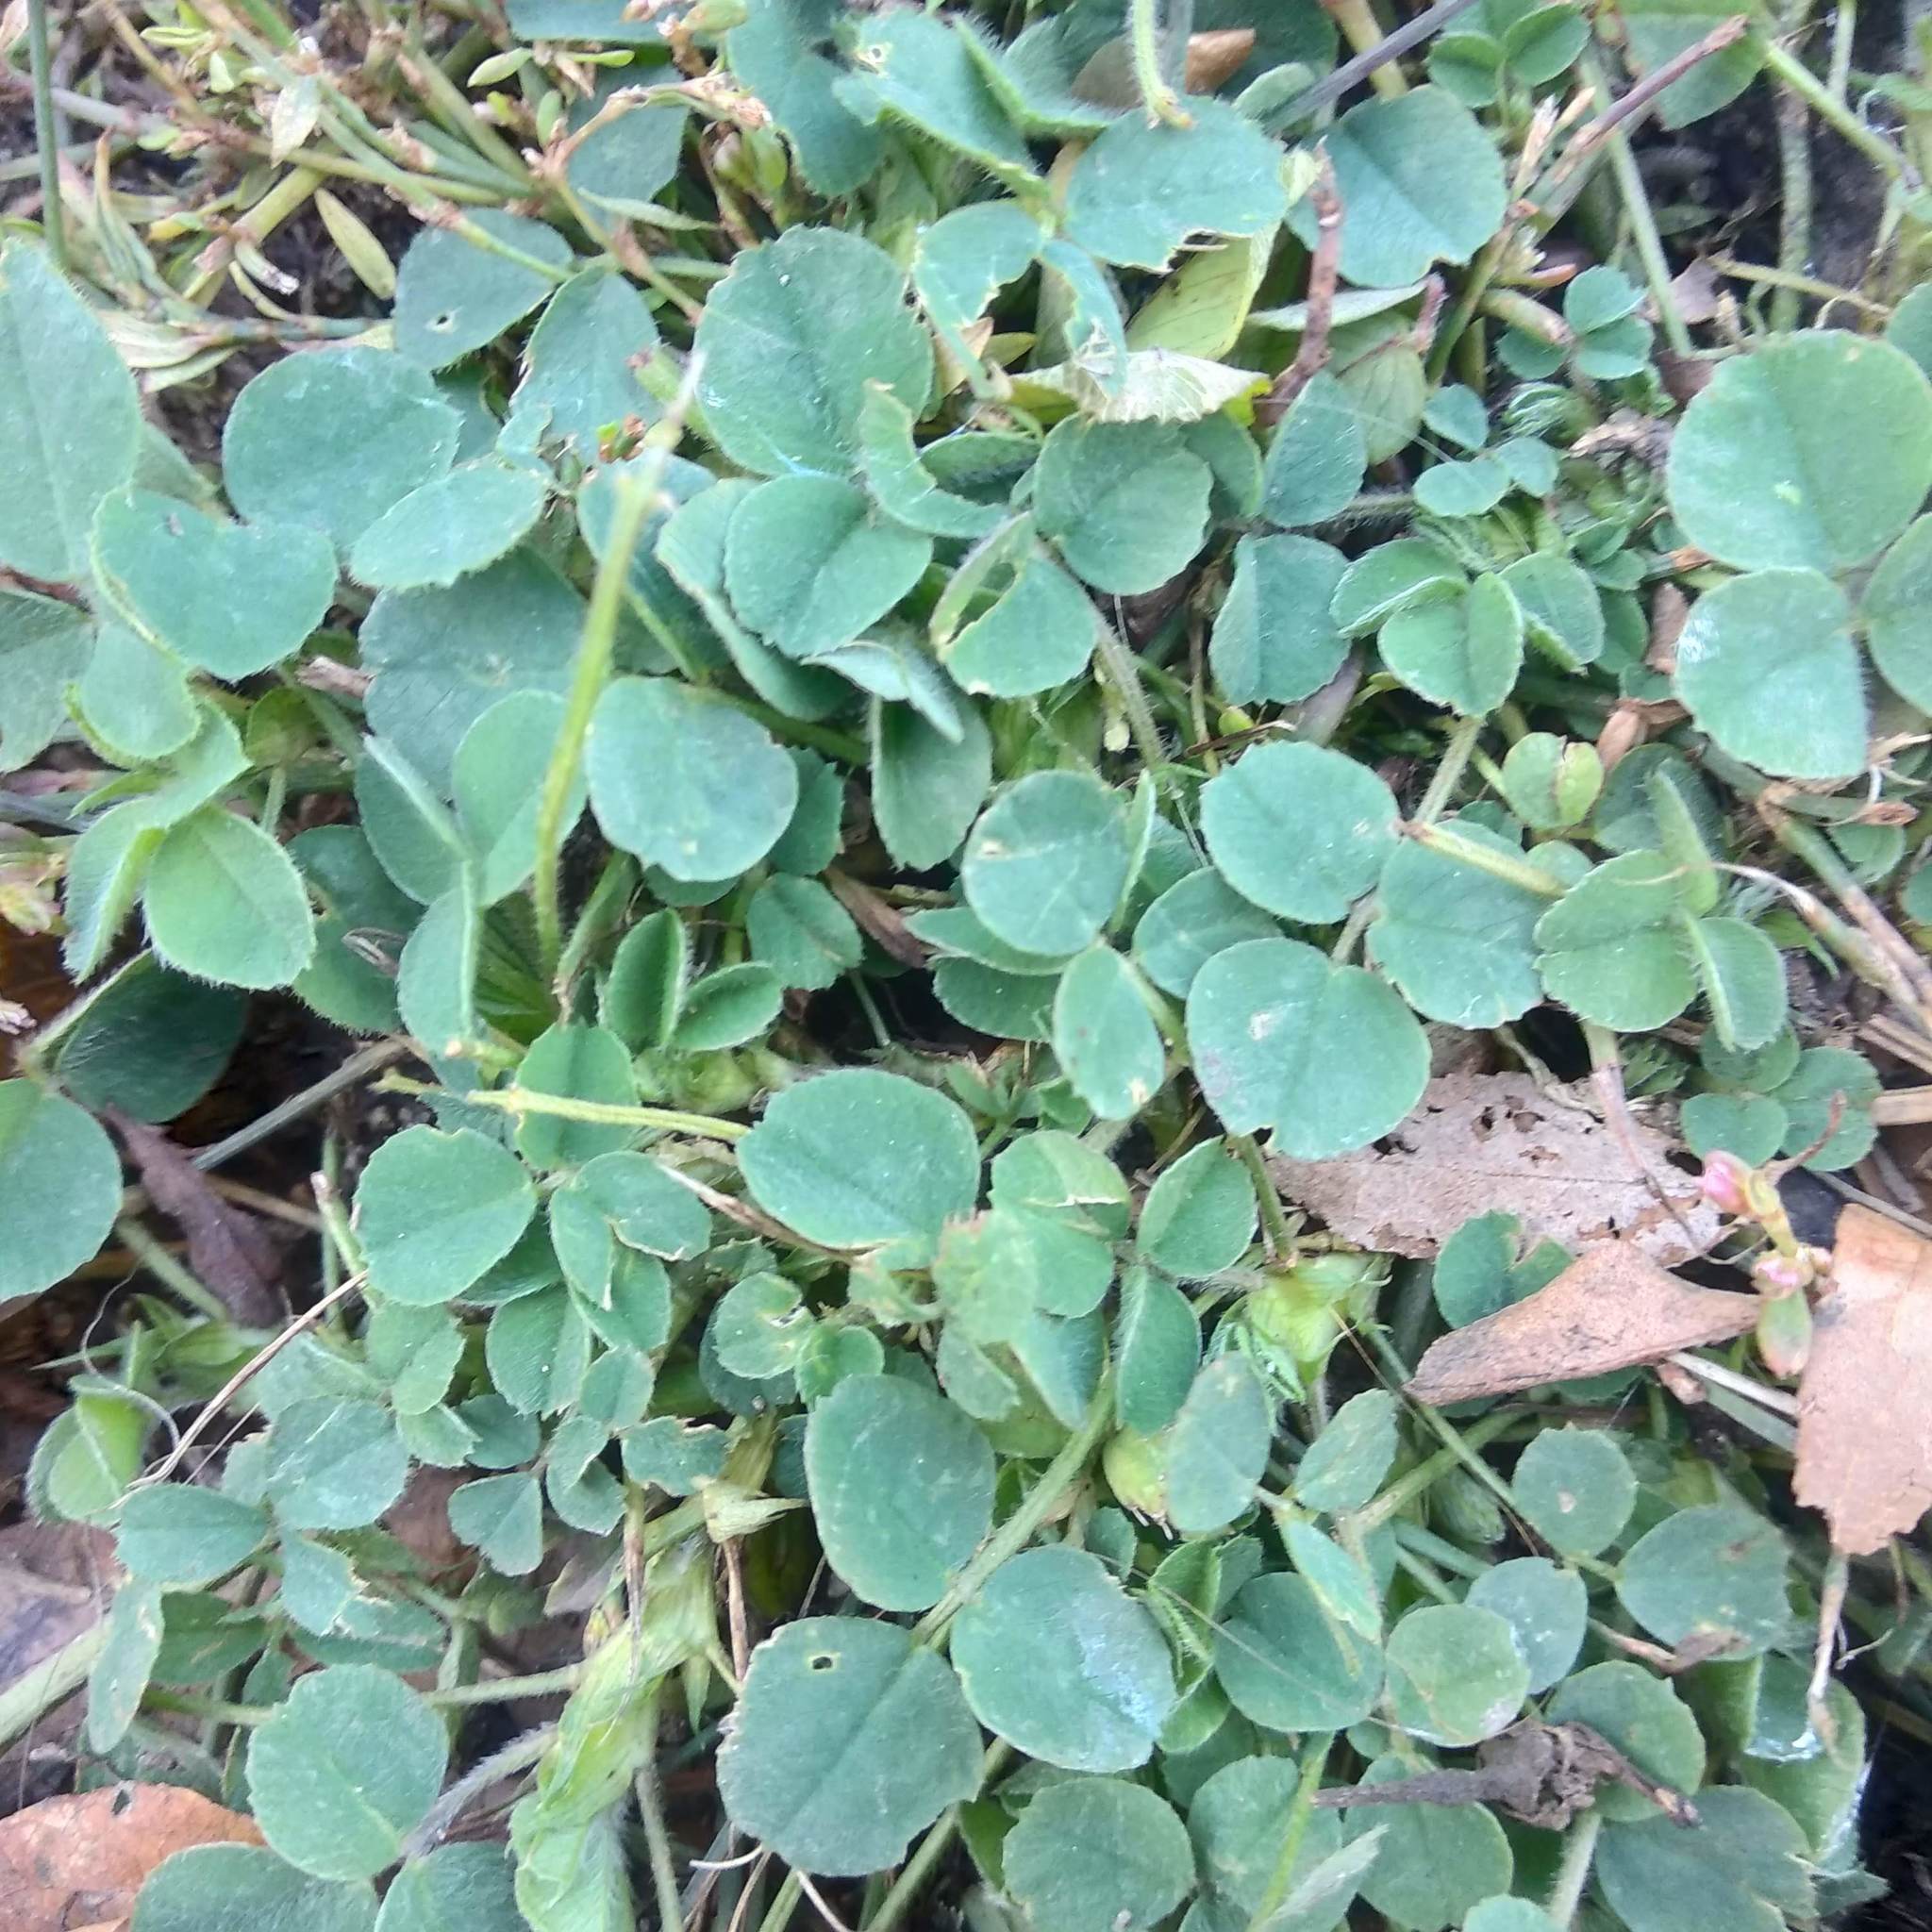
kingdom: Plantae
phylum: Tracheophyta
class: Magnoliopsida
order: Fabales
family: Fabaceae
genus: Medicago
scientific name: Medicago lupulina
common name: Black medick
